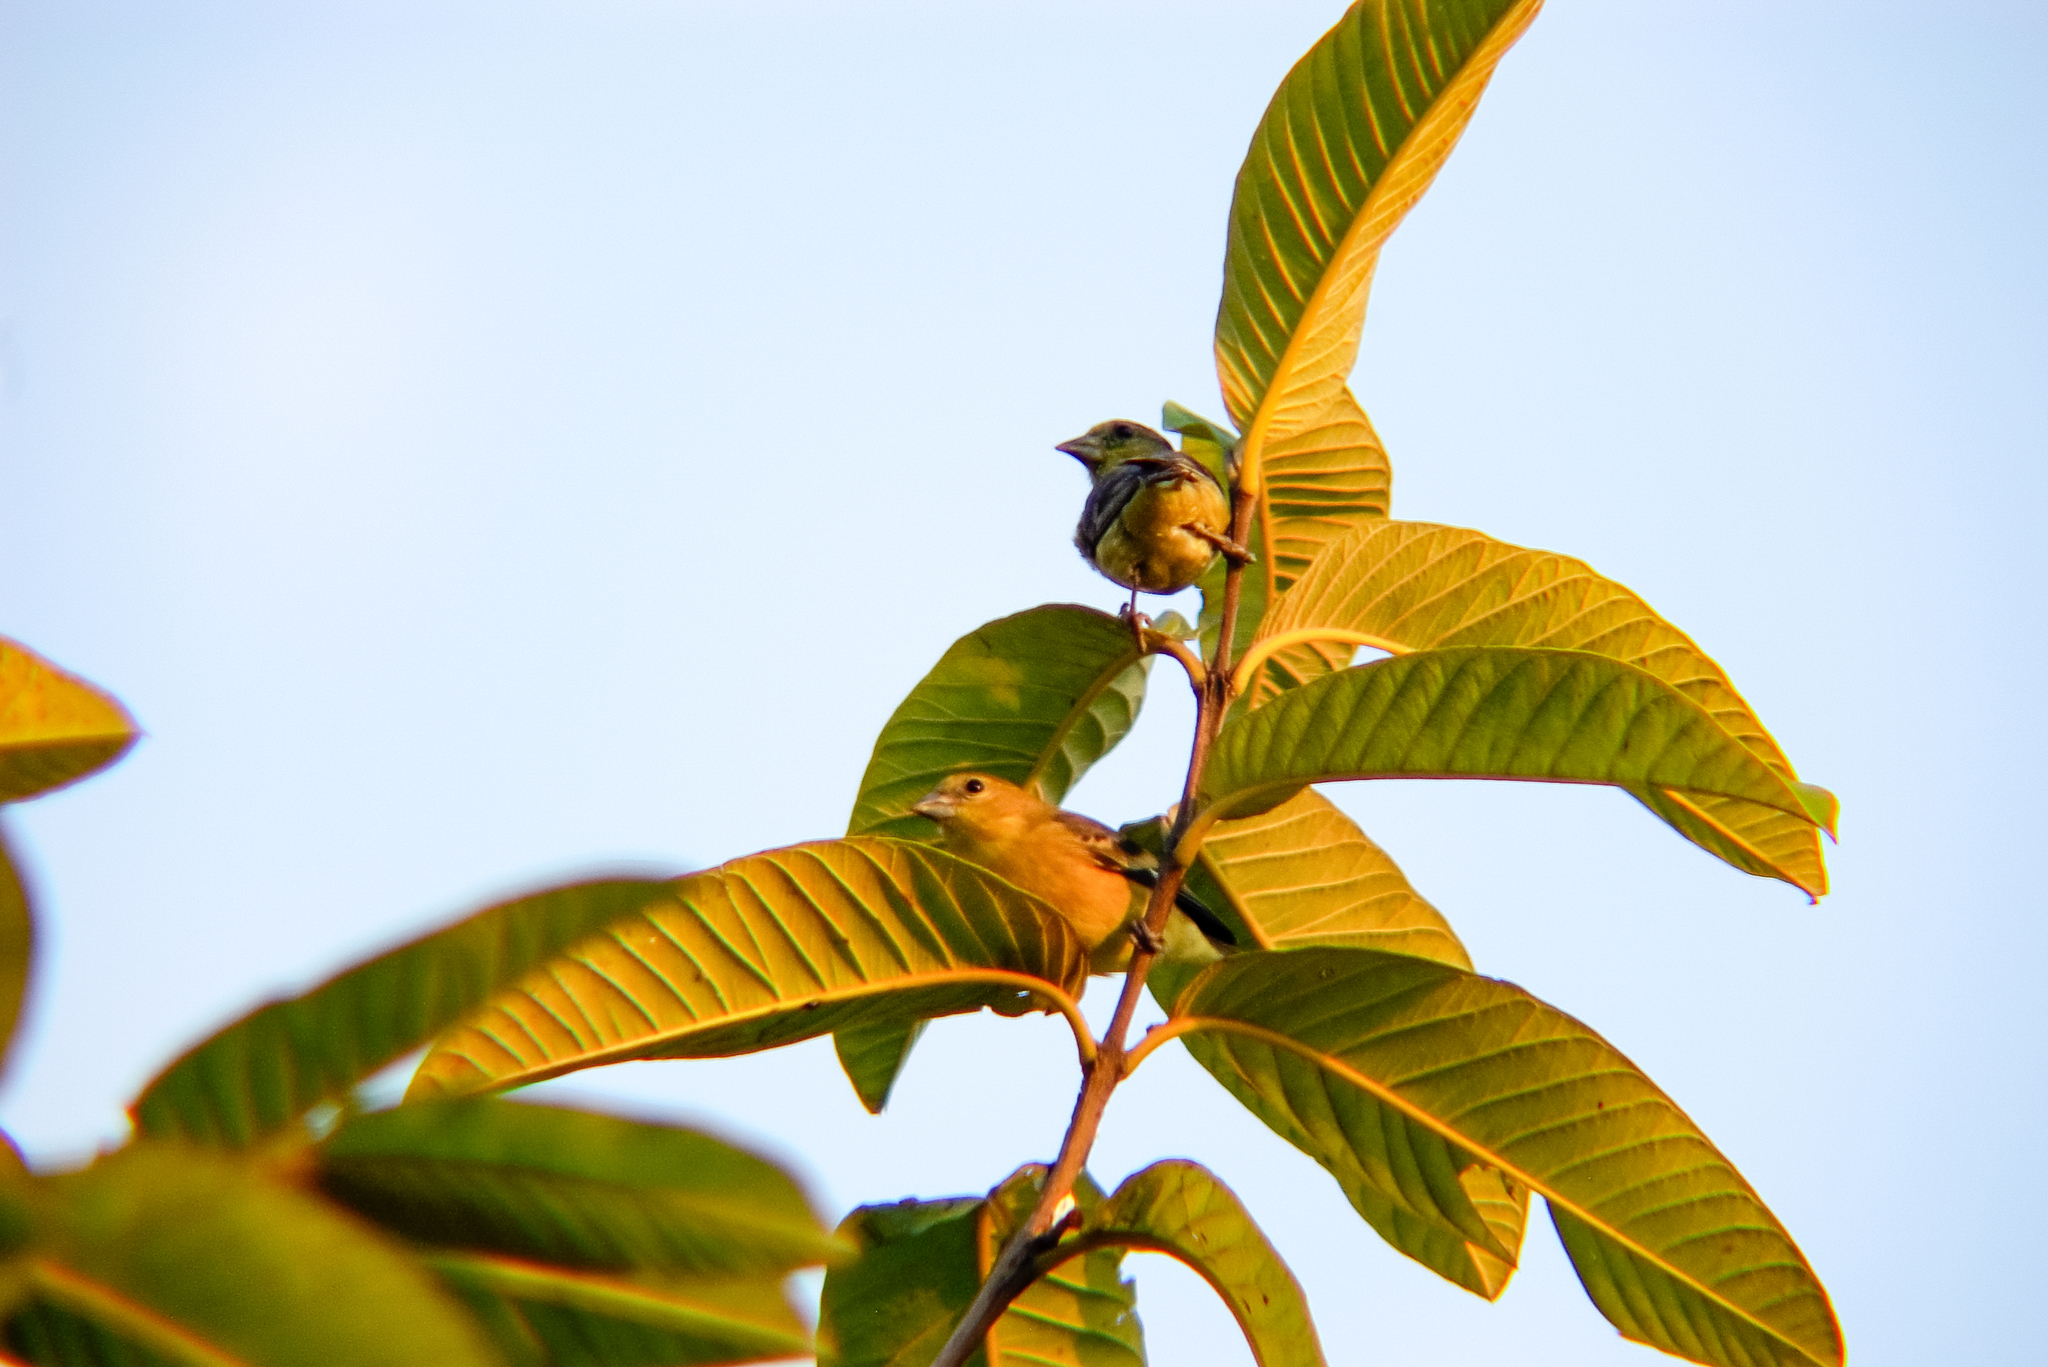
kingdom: Animalia
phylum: Chordata
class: Aves
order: Passeriformes
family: Fringillidae
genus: Spinus
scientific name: Spinus psaltria
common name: Lesser goldfinch
